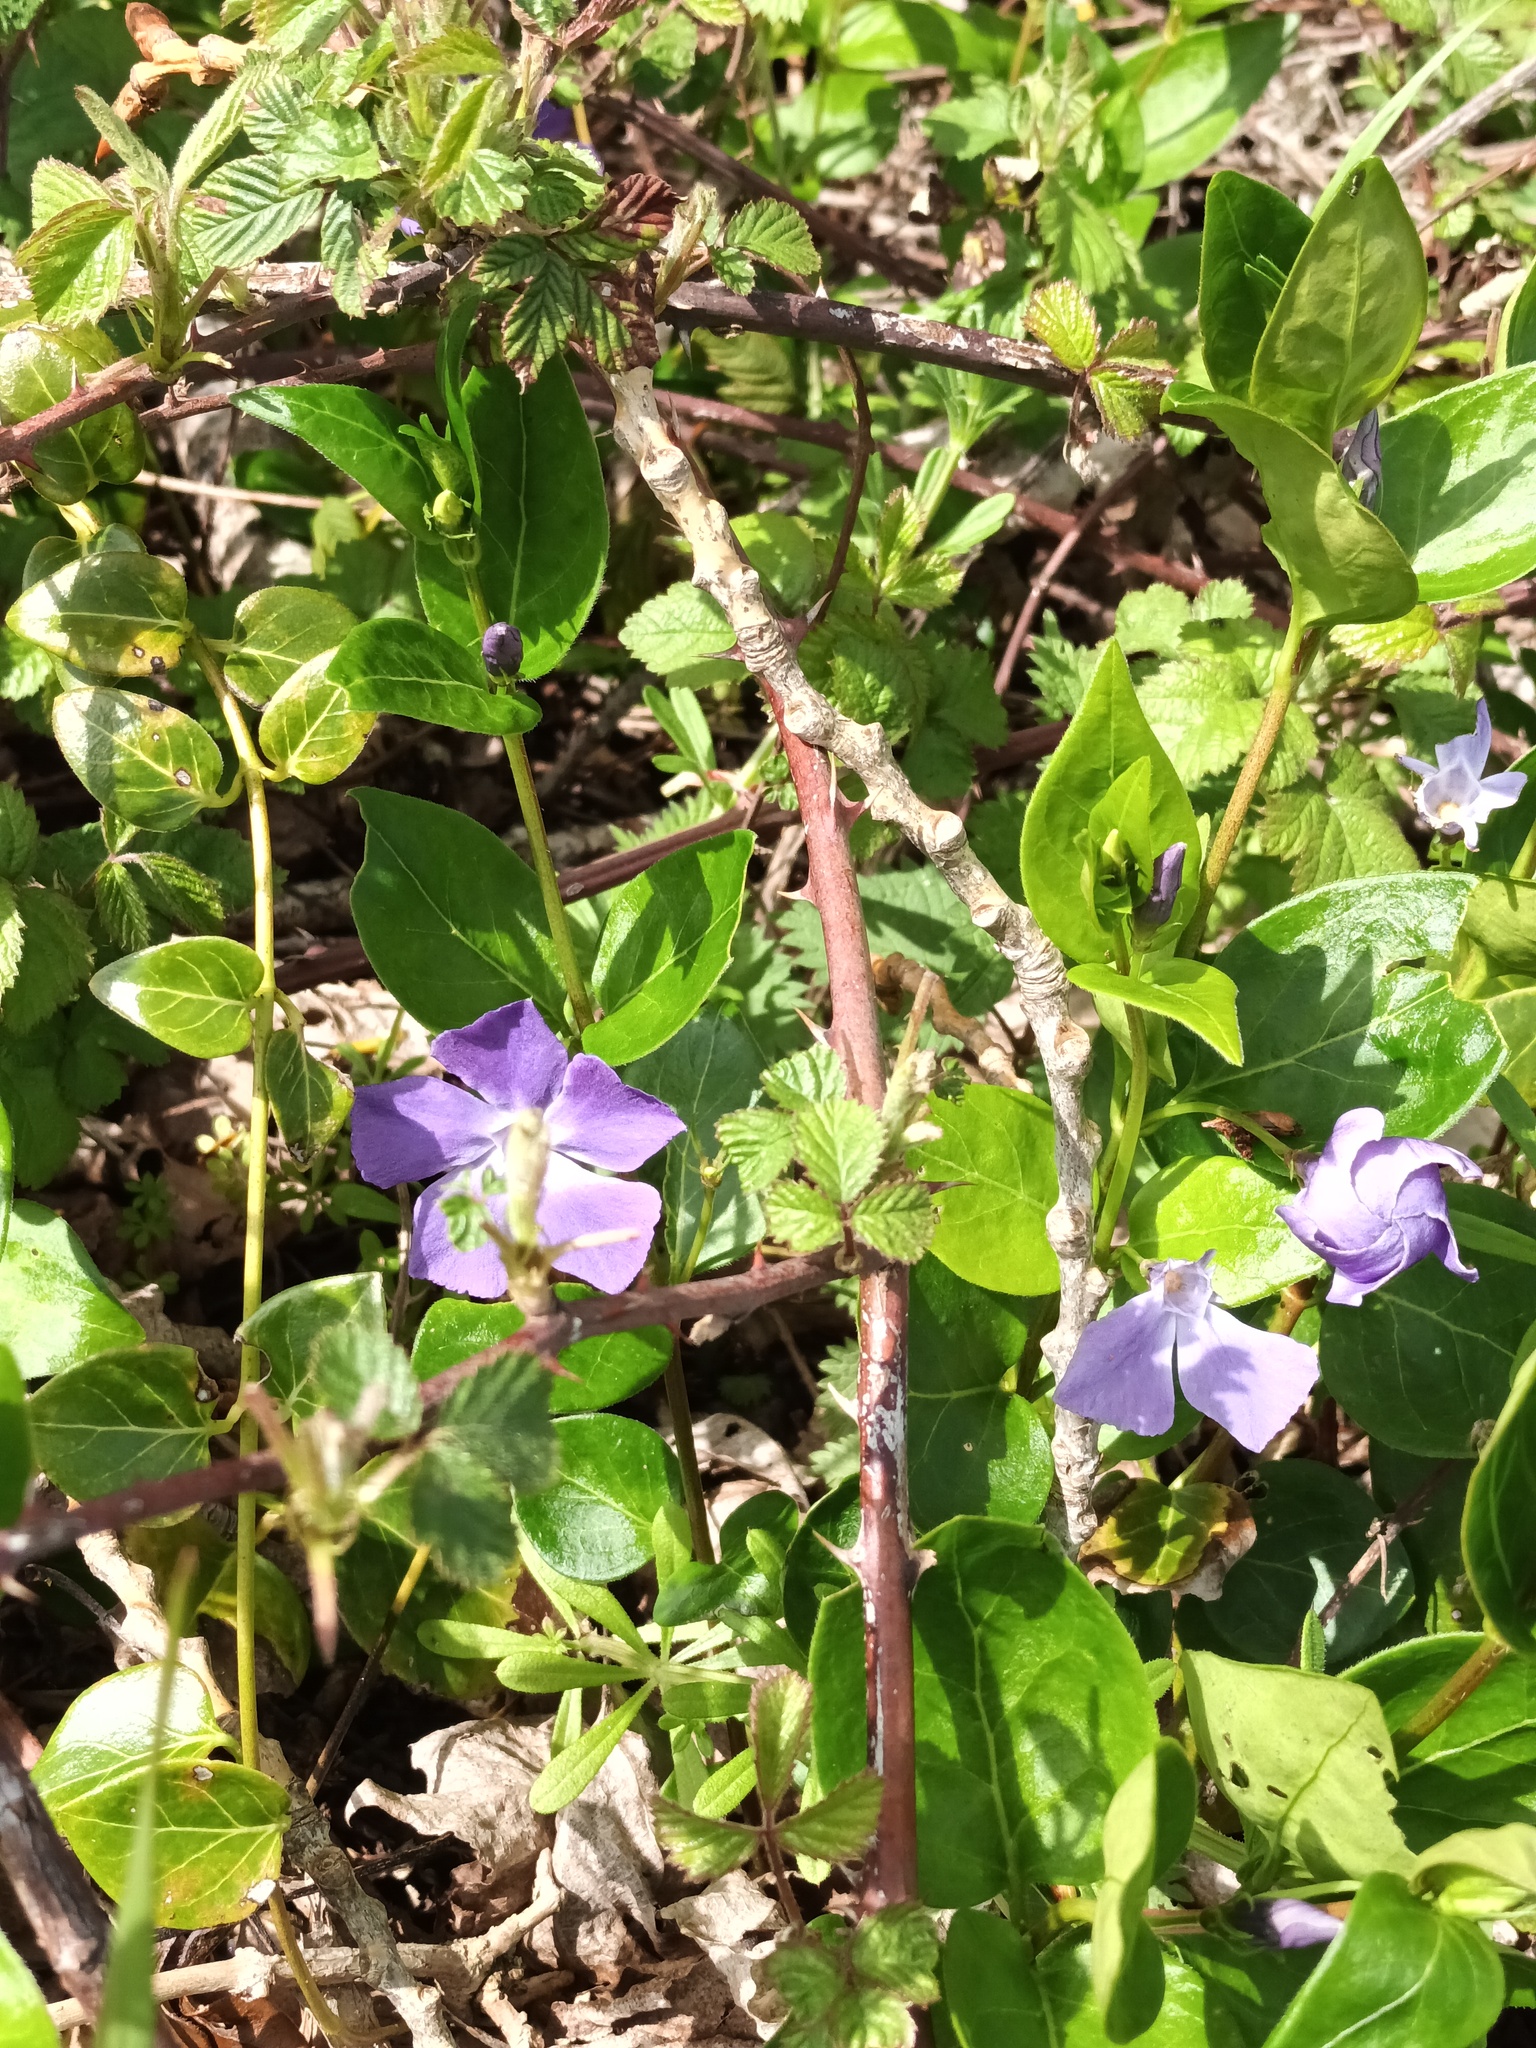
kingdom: Plantae
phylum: Tracheophyta
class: Magnoliopsida
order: Gentianales
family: Apocynaceae
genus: Vinca
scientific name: Vinca major
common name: Greater periwinkle
